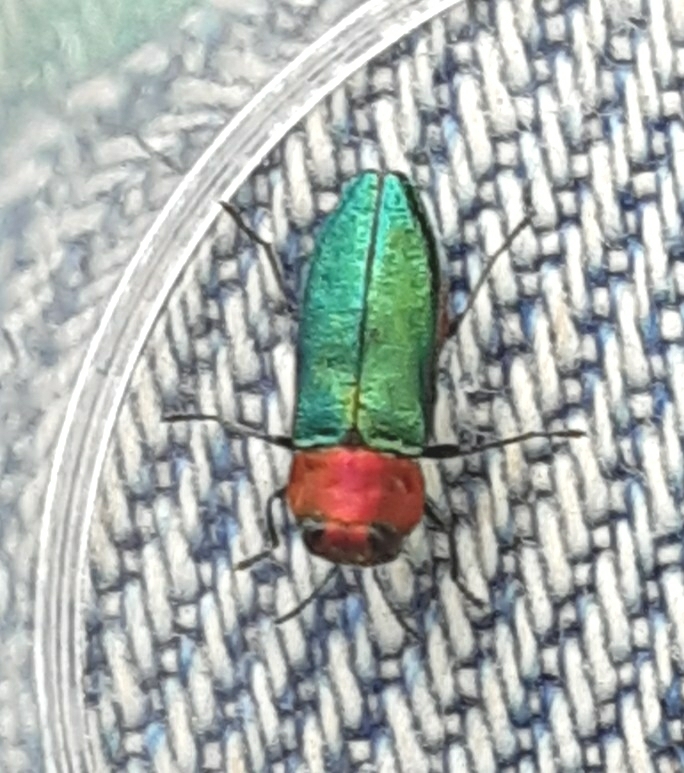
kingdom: Animalia
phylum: Arthropoda
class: Insecta
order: Coleoptera
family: Buprestidae
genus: Anthaxia
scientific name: Anthaxia nitidula
